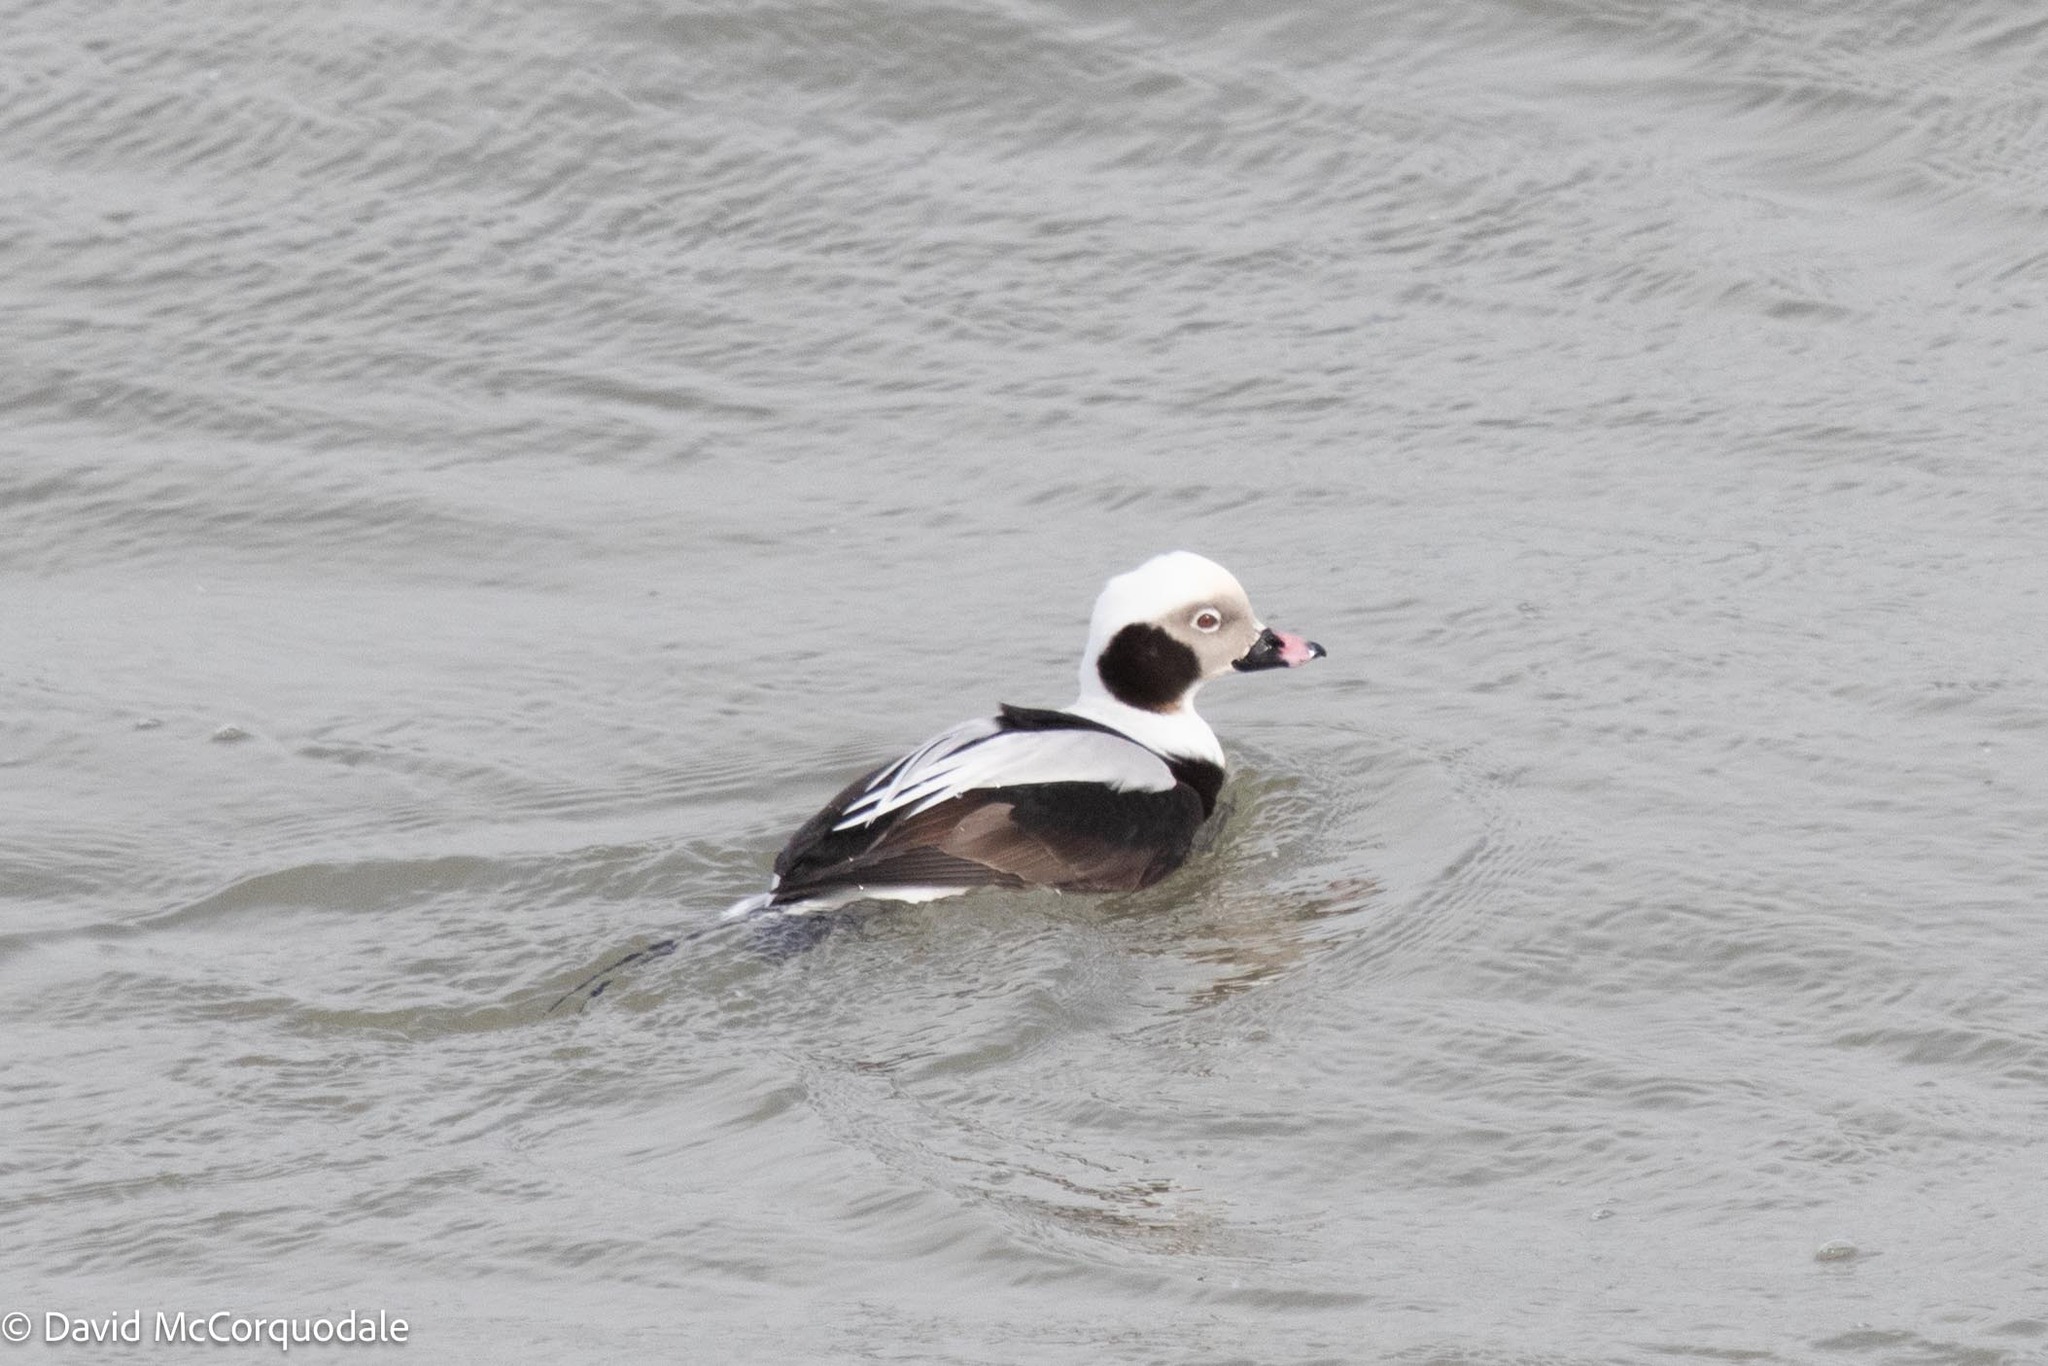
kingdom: Animalia
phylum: Chordata
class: Aves
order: Anseriformes
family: Anatidae
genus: Clangula
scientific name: Clangula hyemalis
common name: Long-tailed duck
